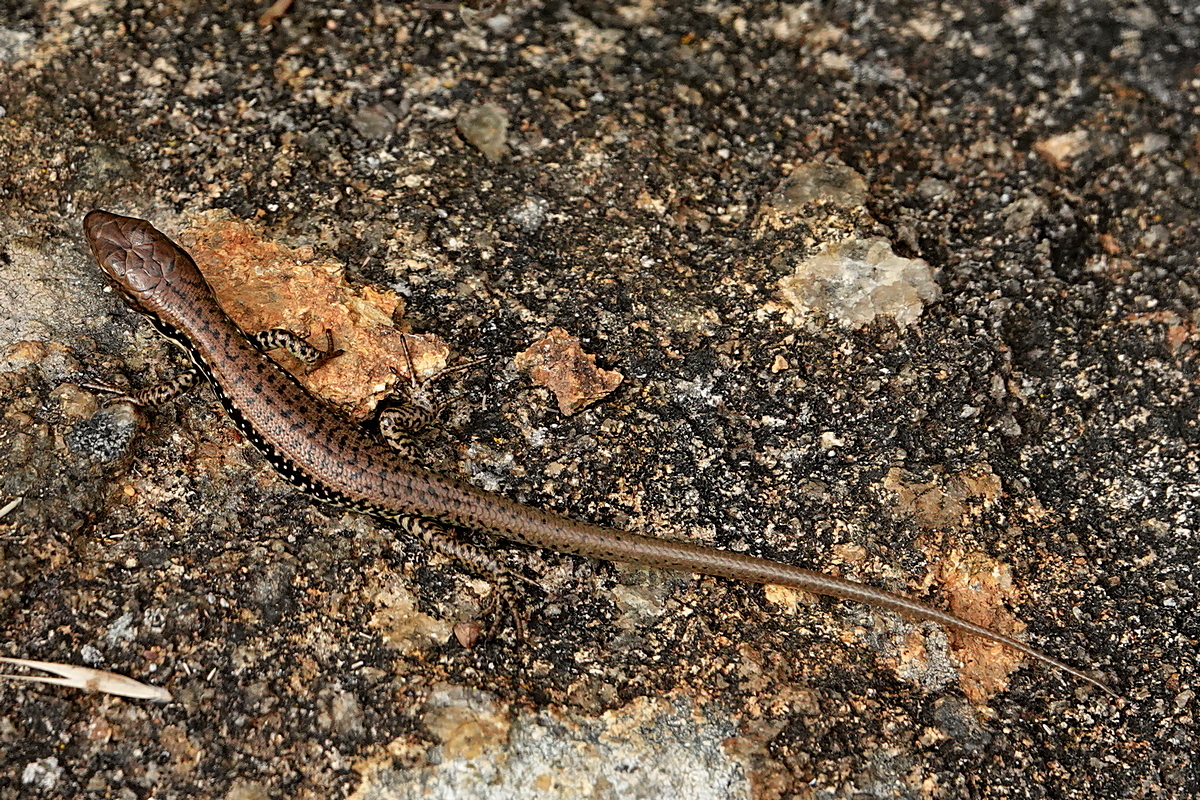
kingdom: Animalia
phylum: Chordata
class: Squamata
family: Scincidae
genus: Eulamprus
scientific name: Eulamprus tympanum
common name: Cool-temperate water-skink
